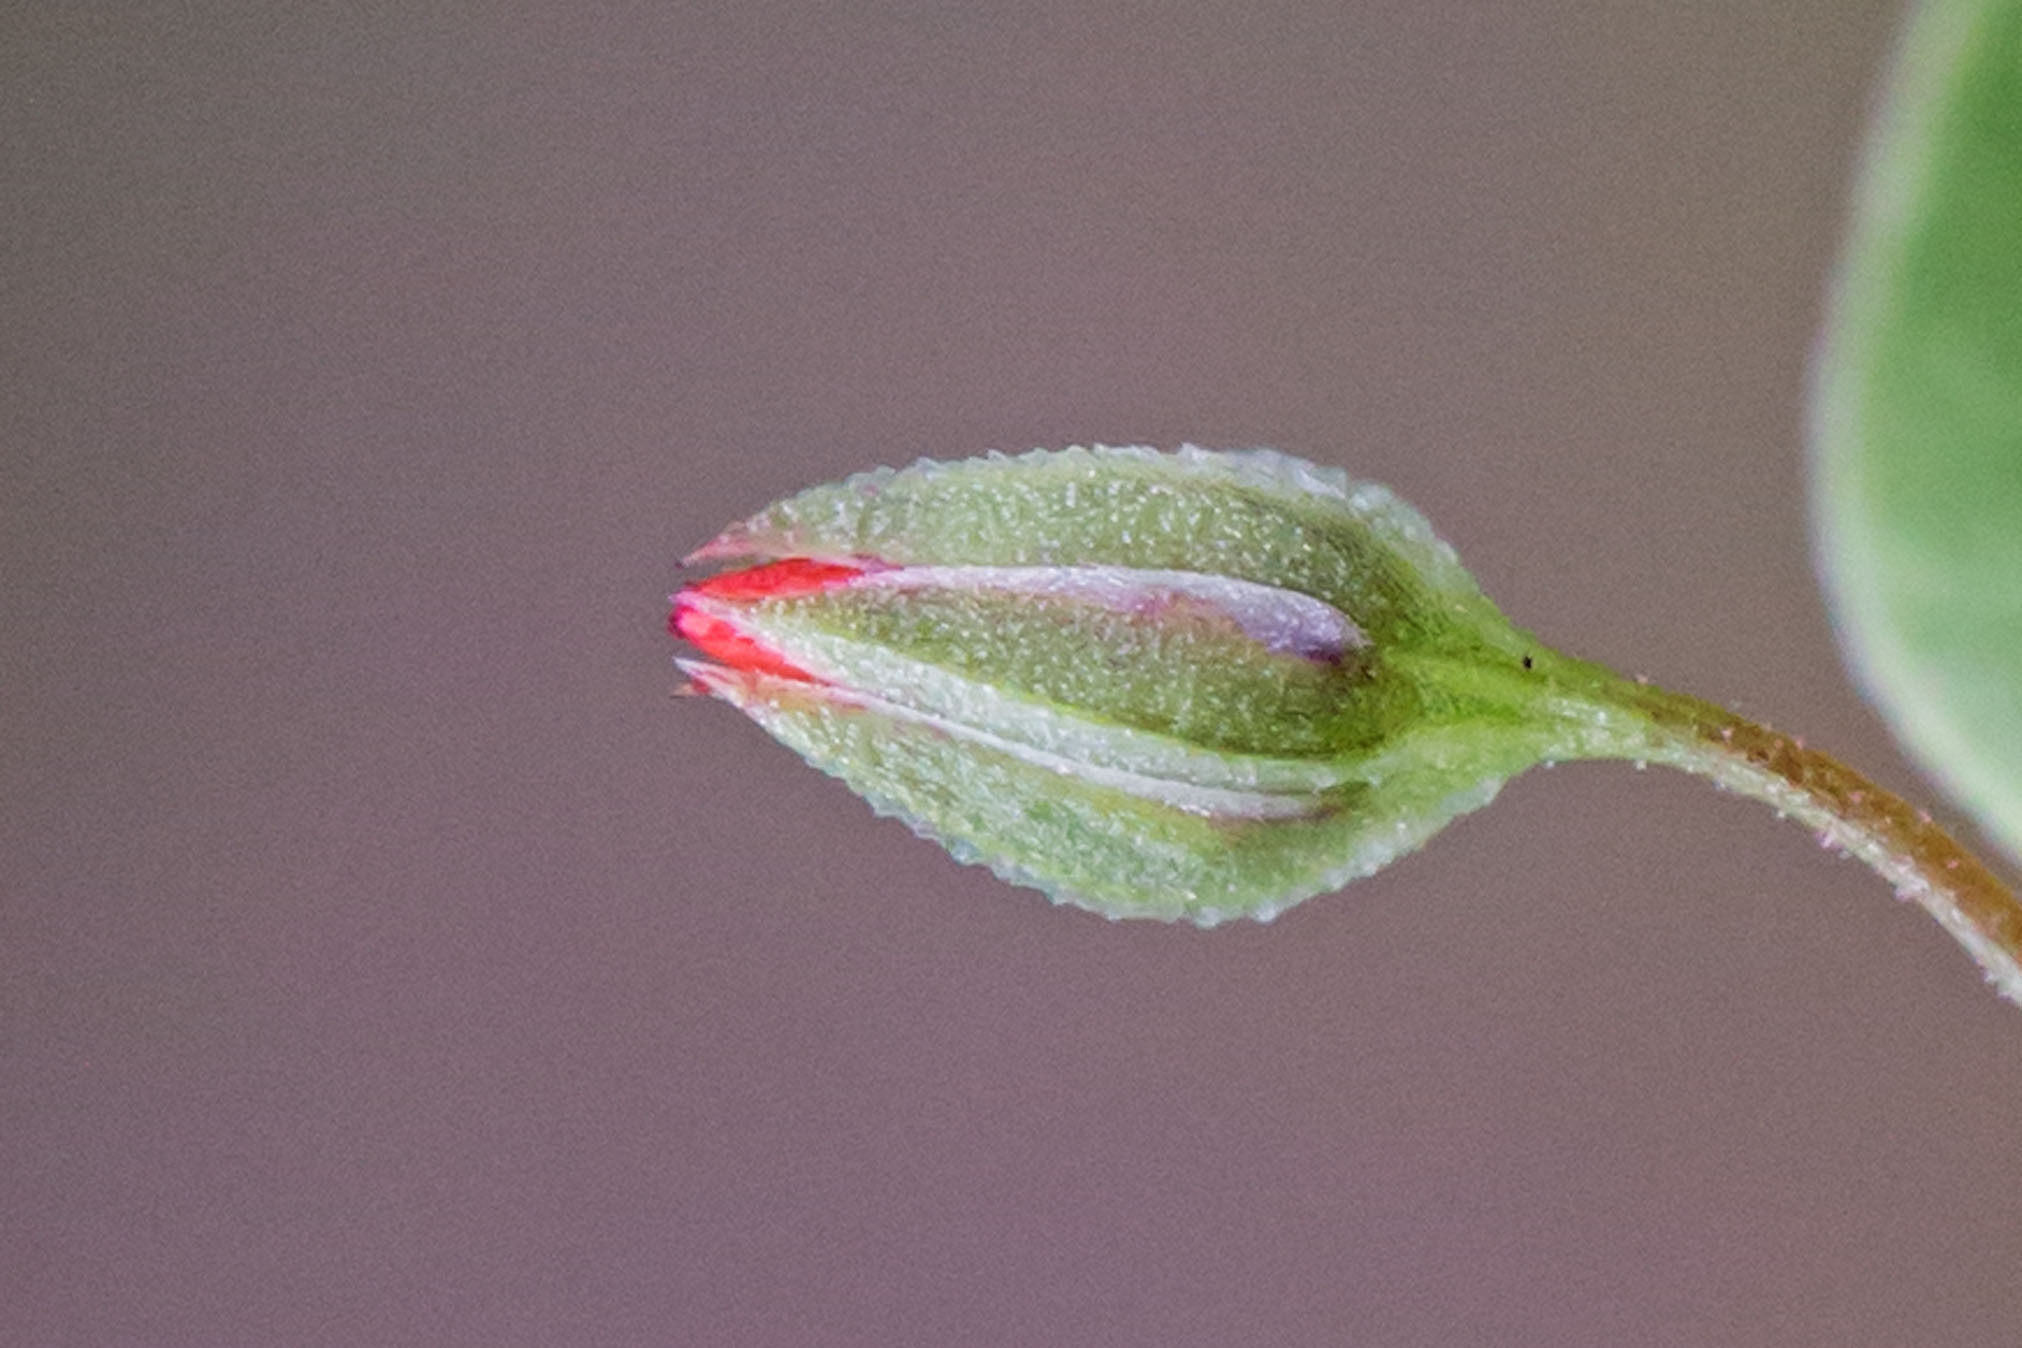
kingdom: Plantae
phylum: Tracheophyta
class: Magnoliopsida
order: Ericales
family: Primulaceae
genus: Lysimachia
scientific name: Lysimachia arvensis
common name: Scarlet pimpernel
